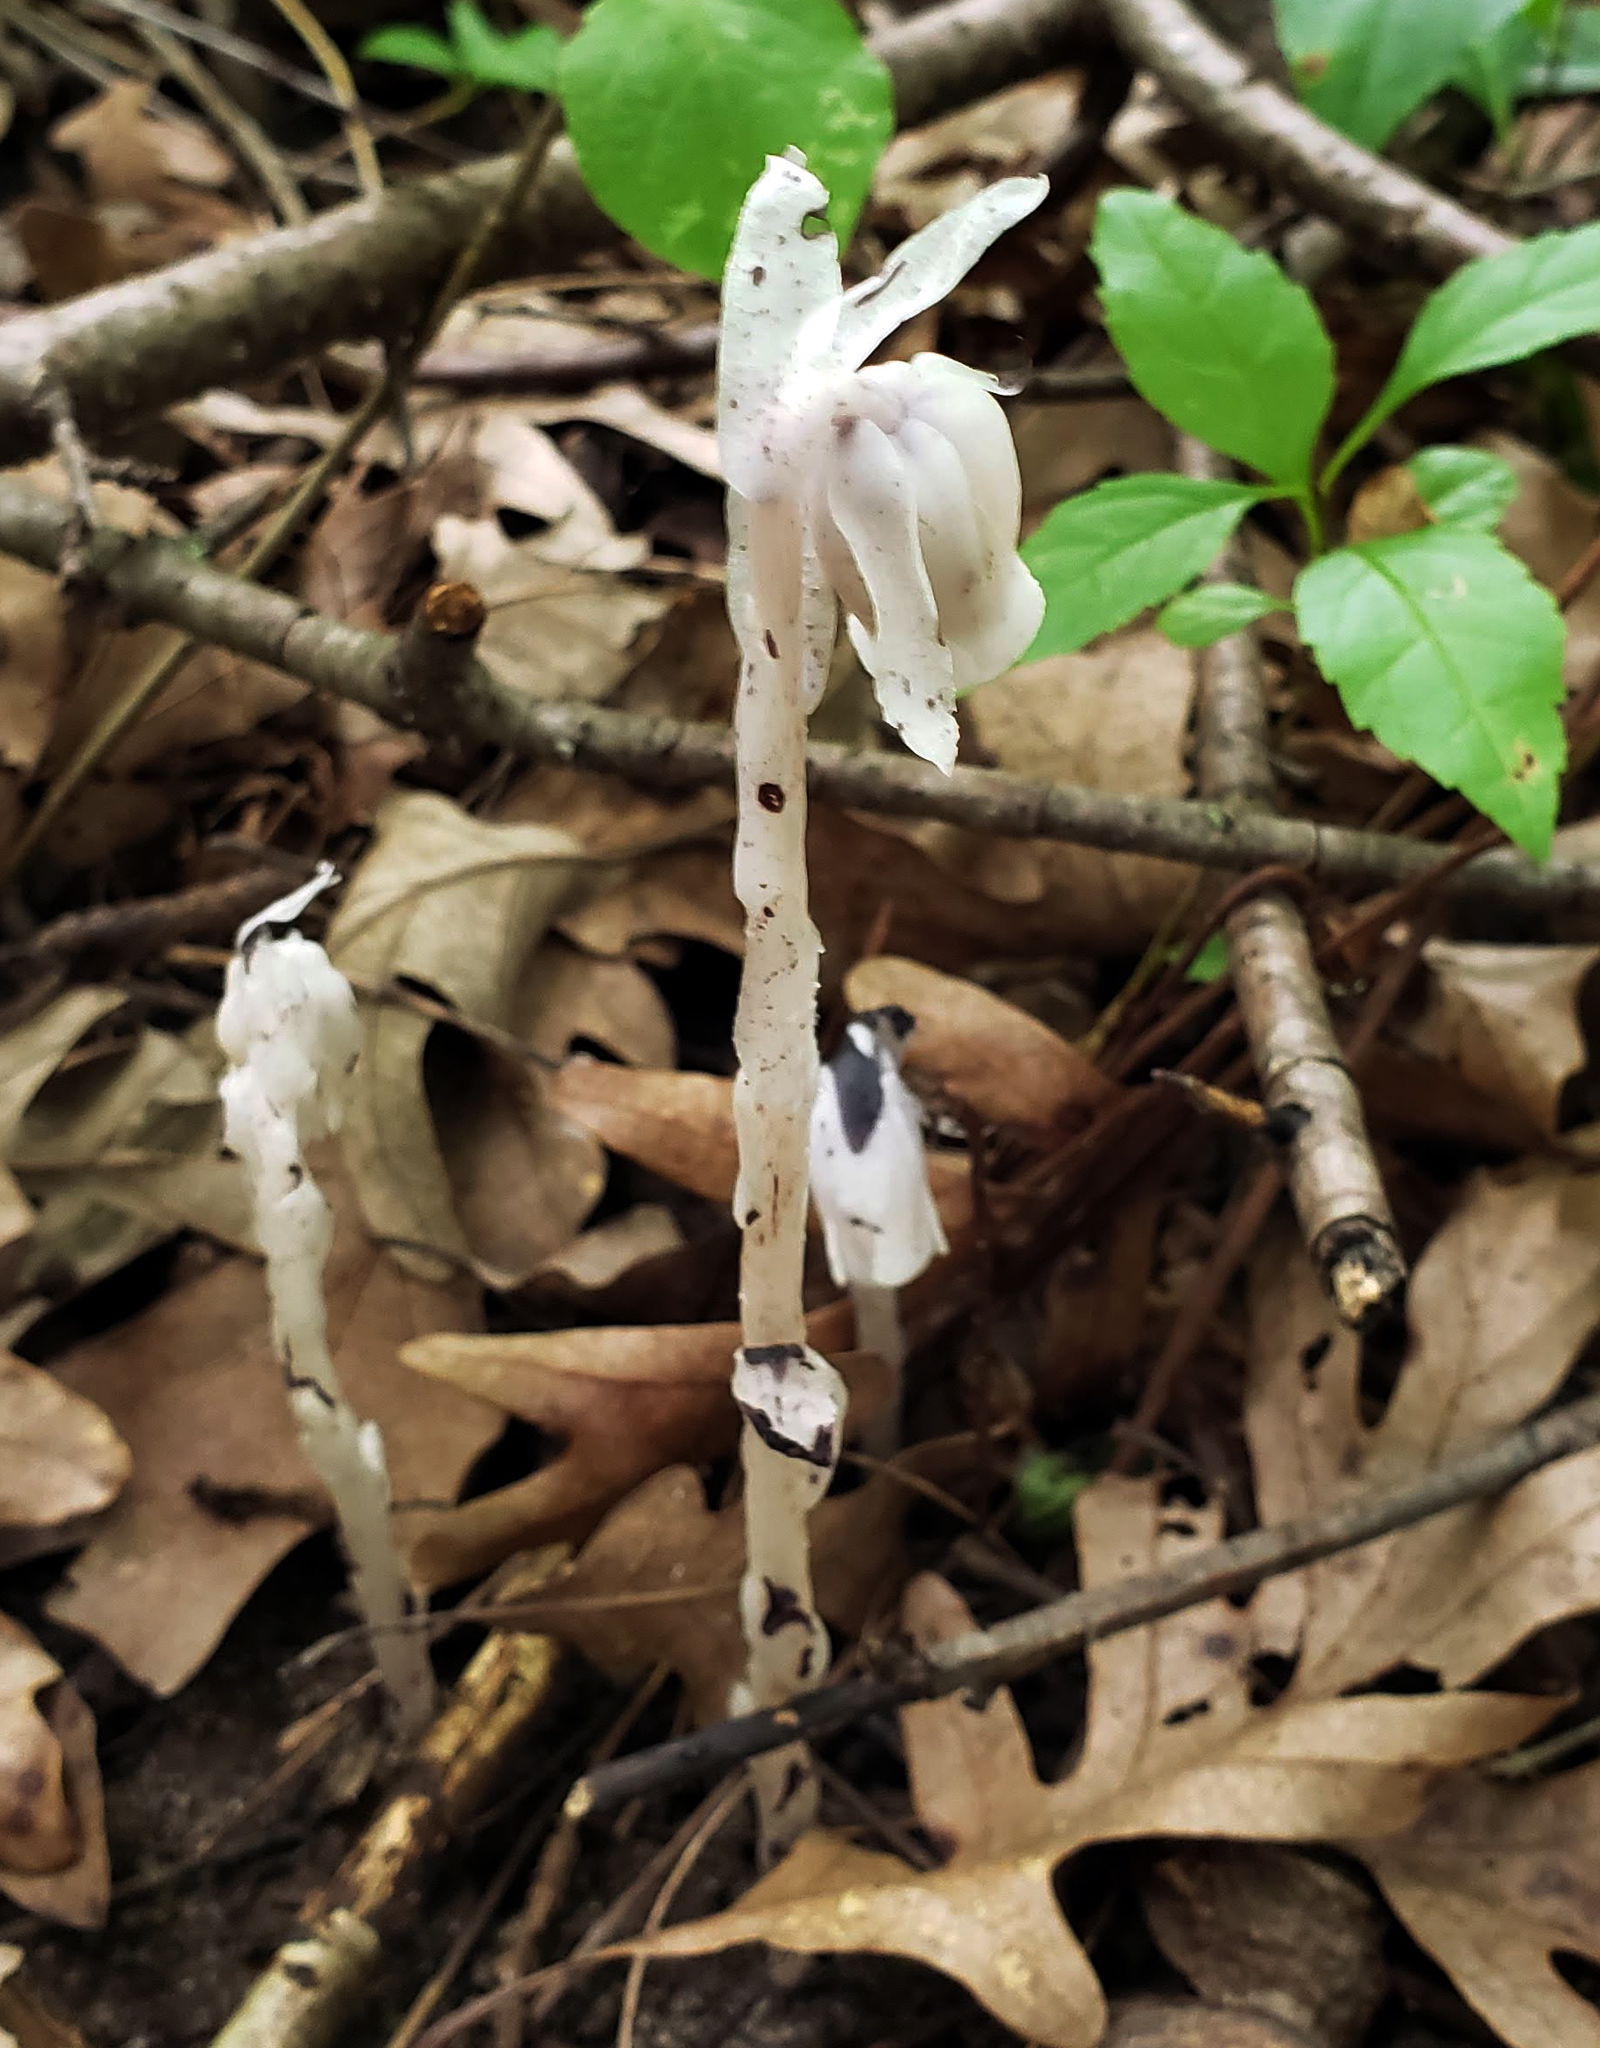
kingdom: Plantae
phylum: Tracheophyta
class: Magnoliopsida
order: Ericales
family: Ericaceae
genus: Monotropa
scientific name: Monotropa uniflora
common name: Convulsion root
